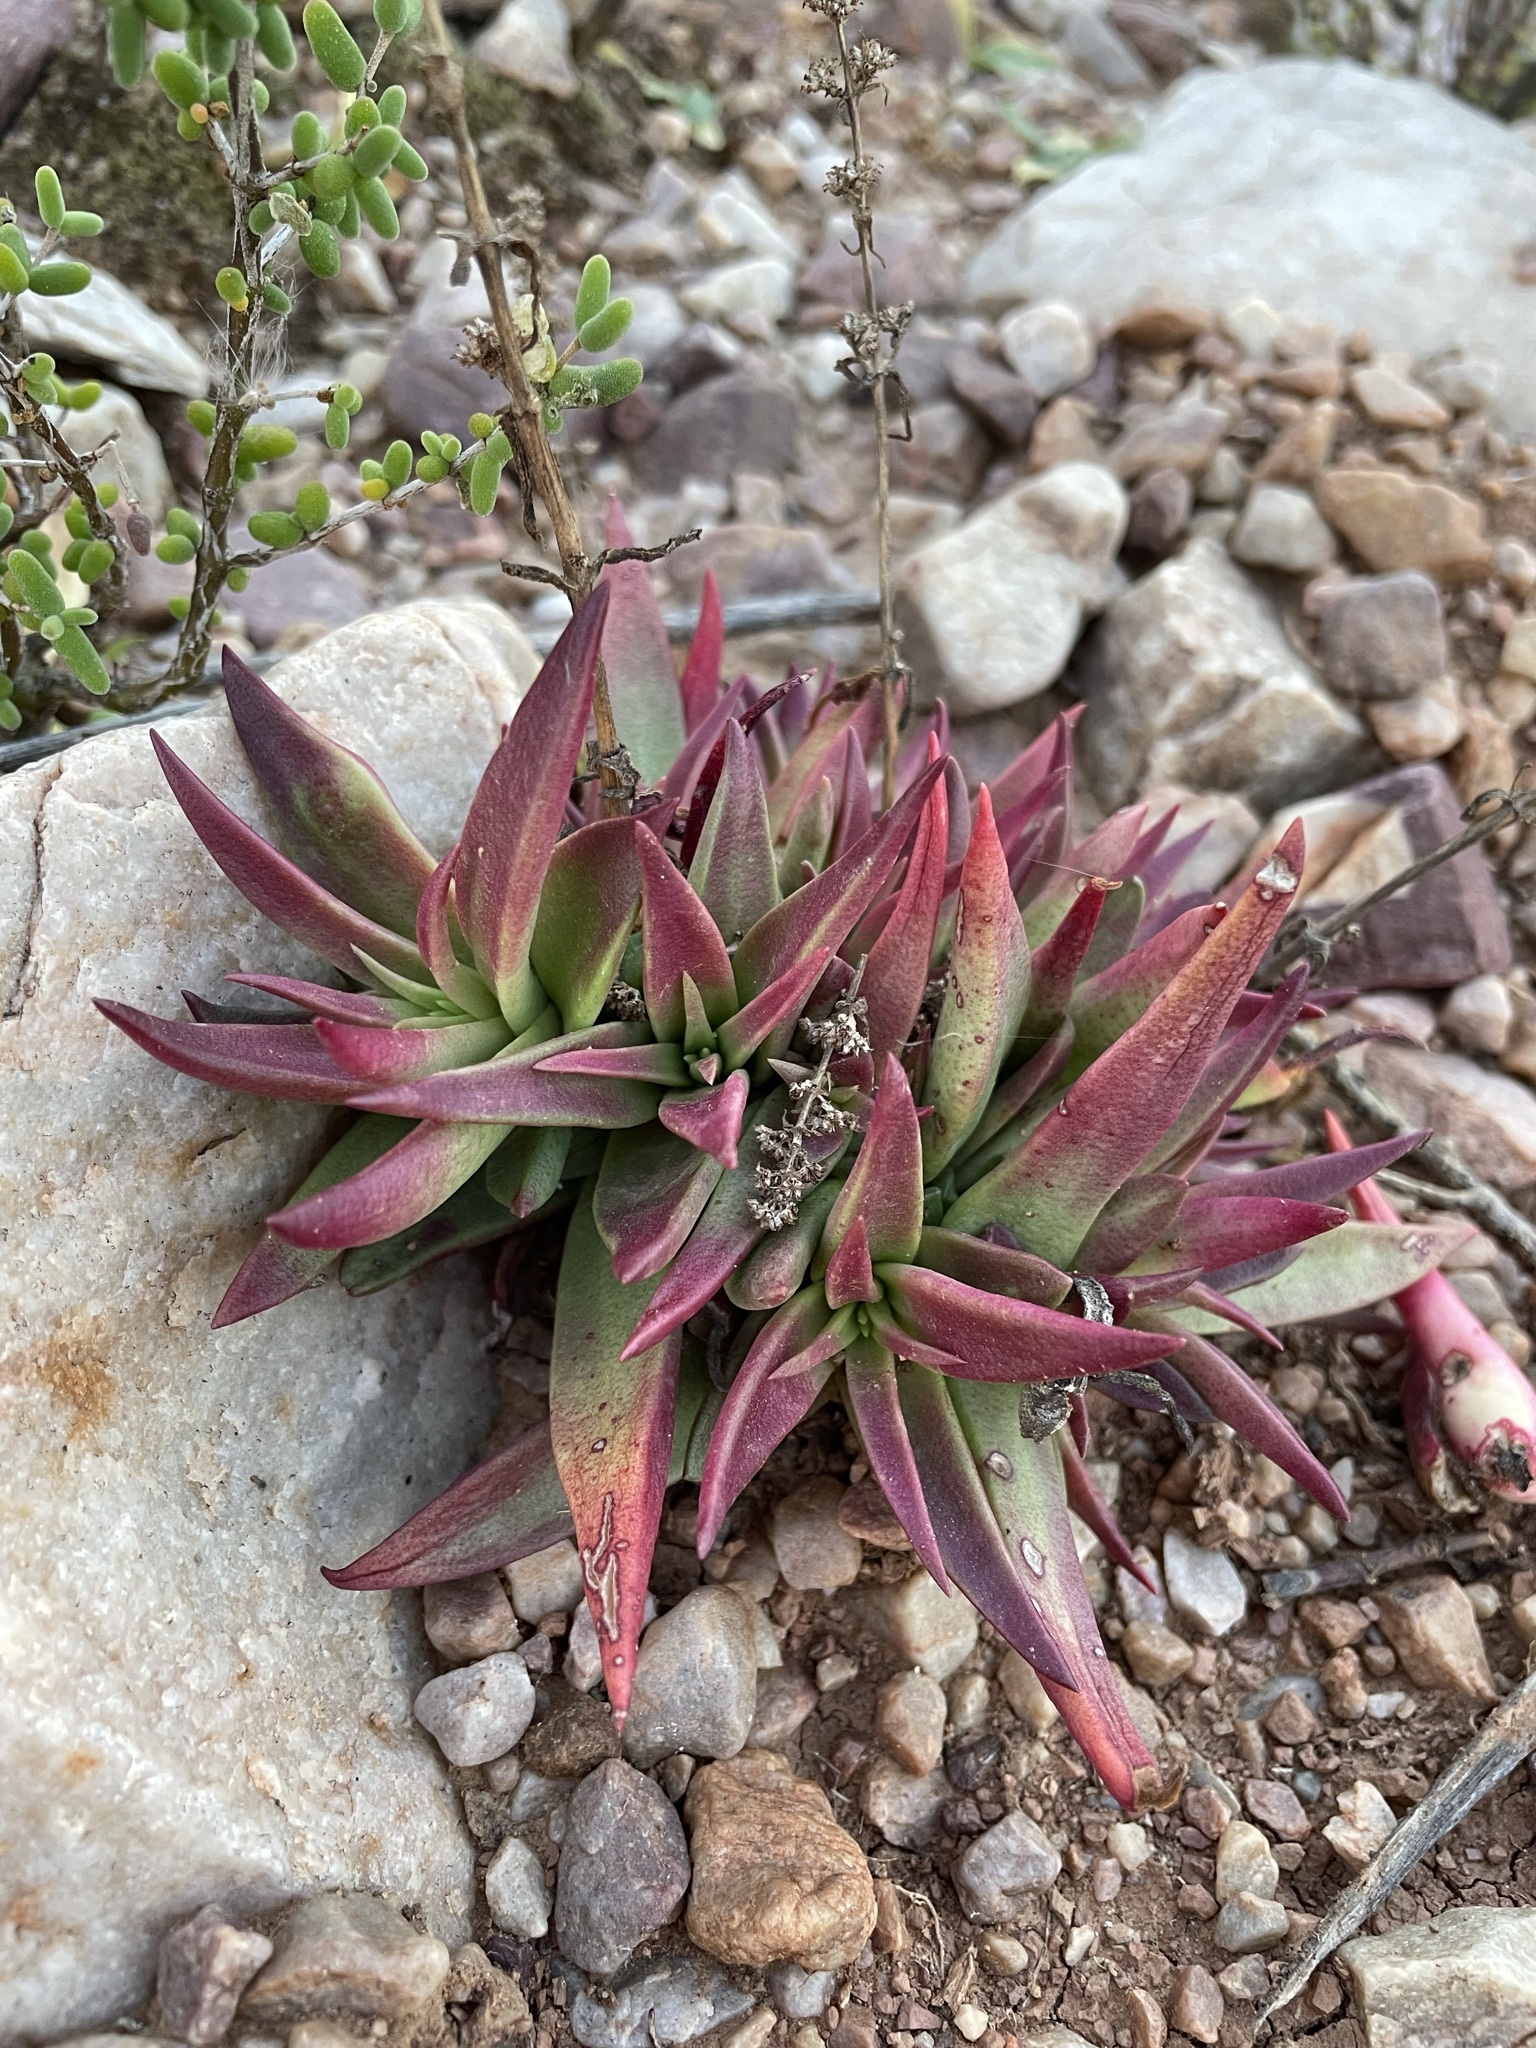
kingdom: Plantae
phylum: Tracheophyta
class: Magnoliopsida
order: Saxifragales
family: Crassulaceae
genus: Crassula
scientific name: Crassula capitella
